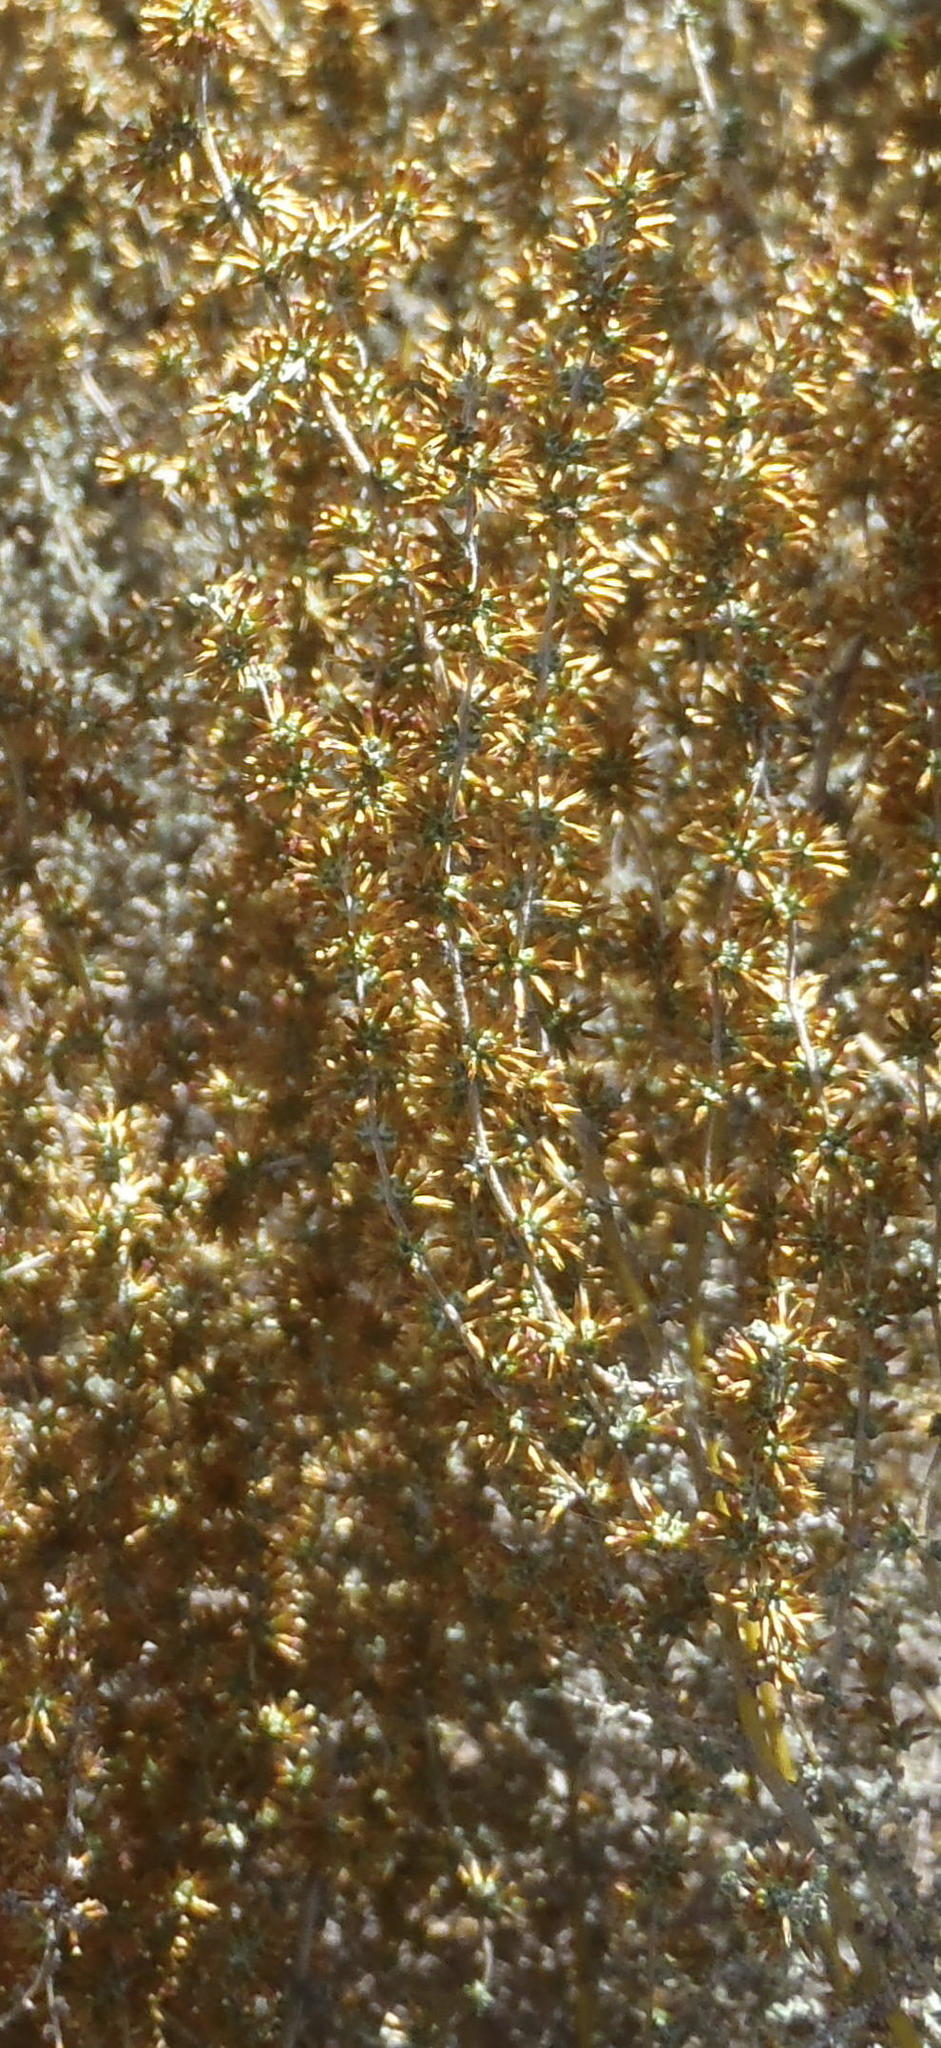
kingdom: Plantae
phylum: Tracheophyta
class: Magnoliopsida
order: Asterales
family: Asteraceae
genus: Seriphium
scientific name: Seriphium plumosum
